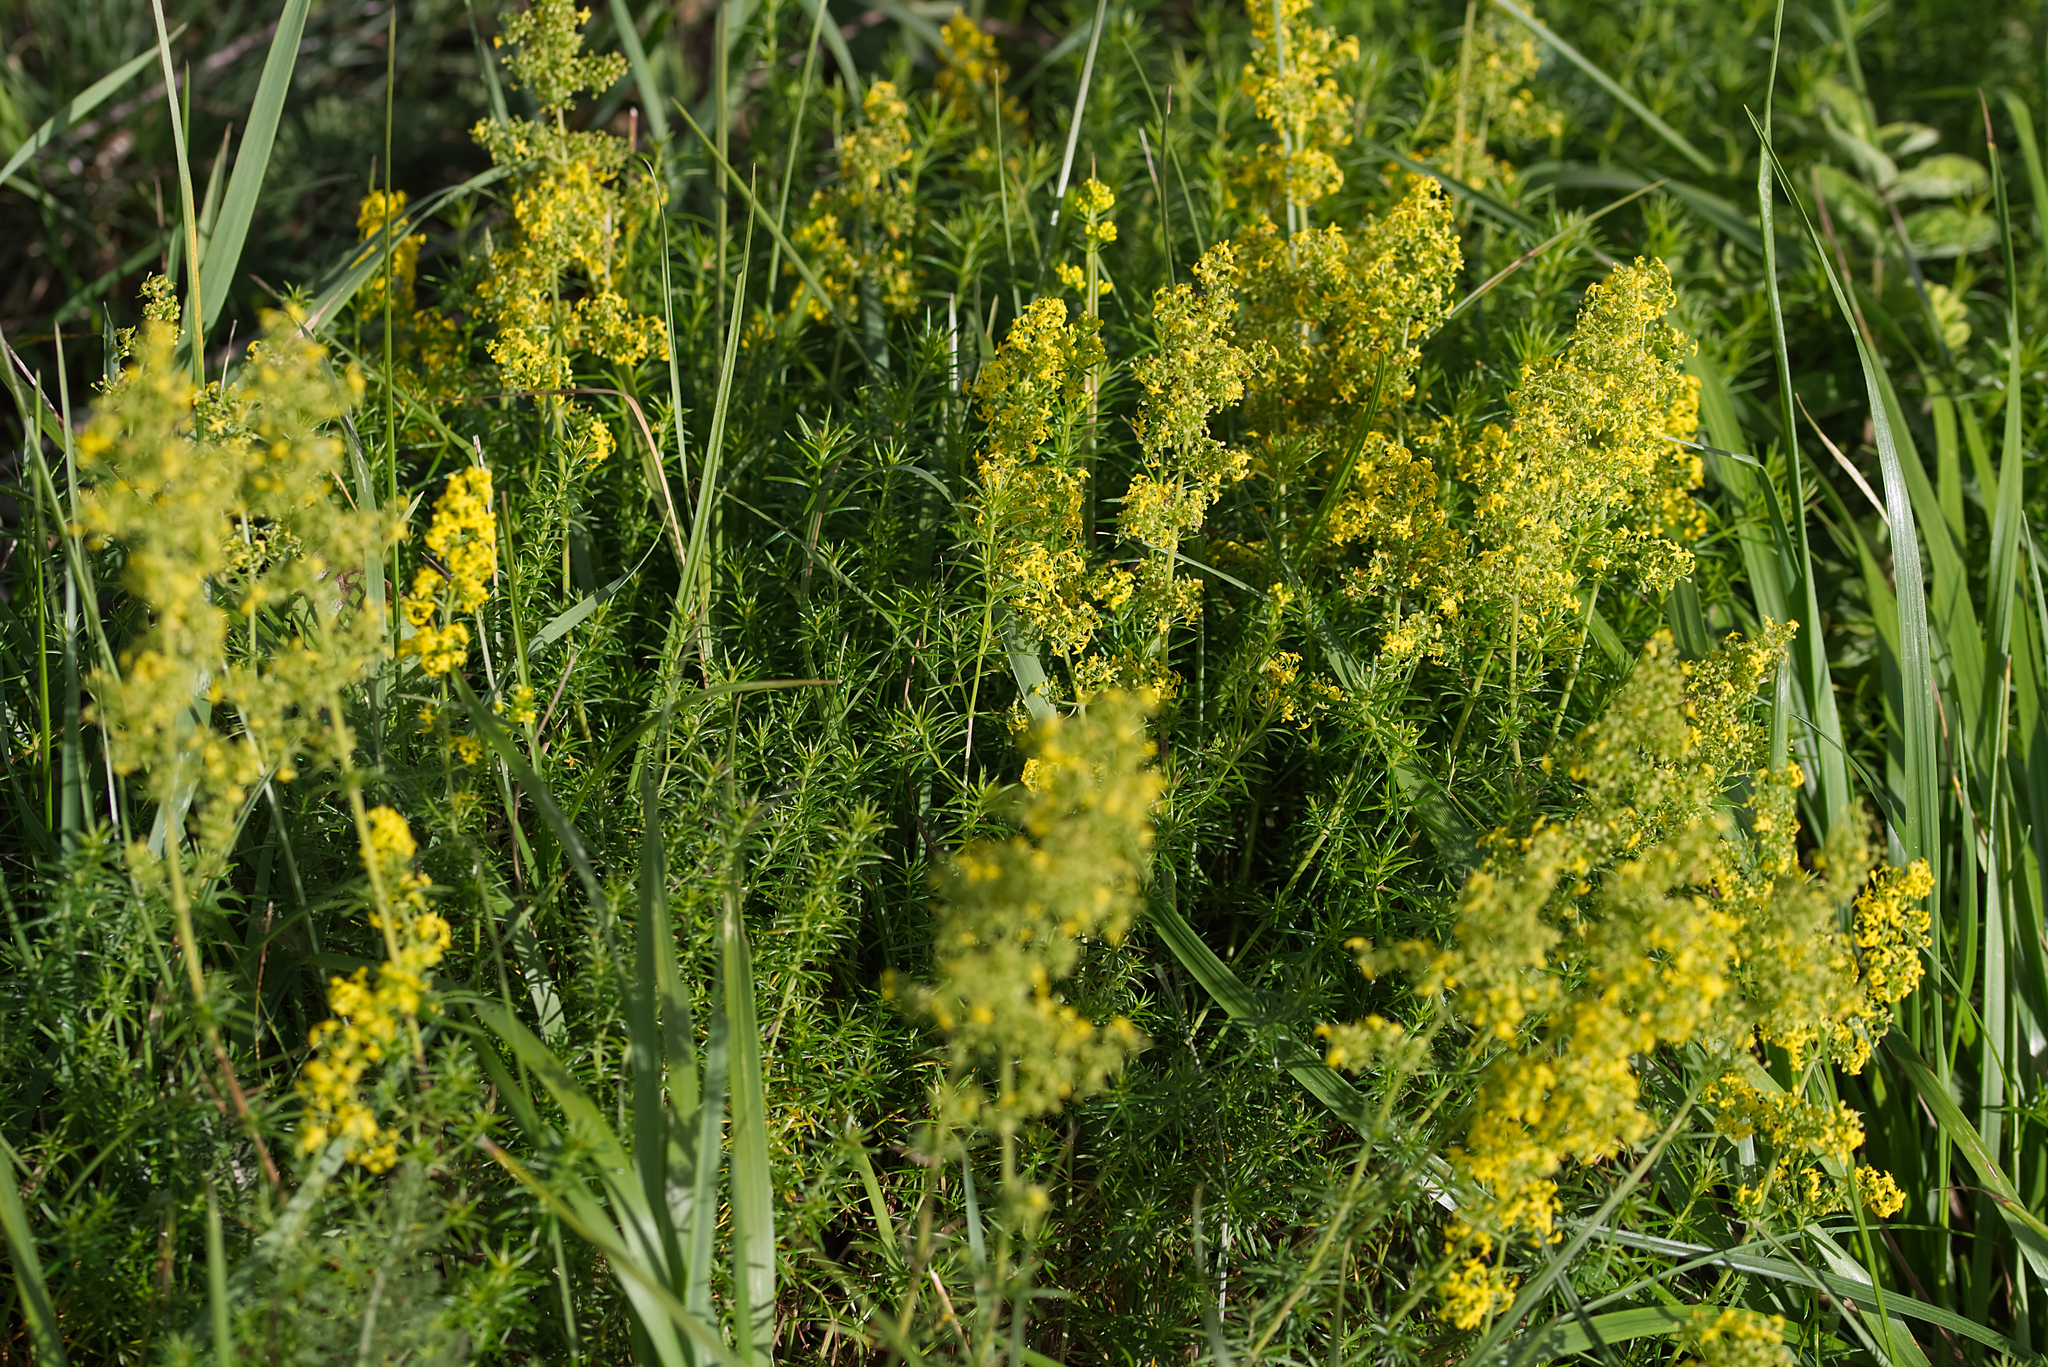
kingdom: Plantae
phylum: Tracheophyta
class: Magnoliopsida
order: Gentianales
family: Rubiaceae
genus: Galium
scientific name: Galium verum
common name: Lady's bedstraw
